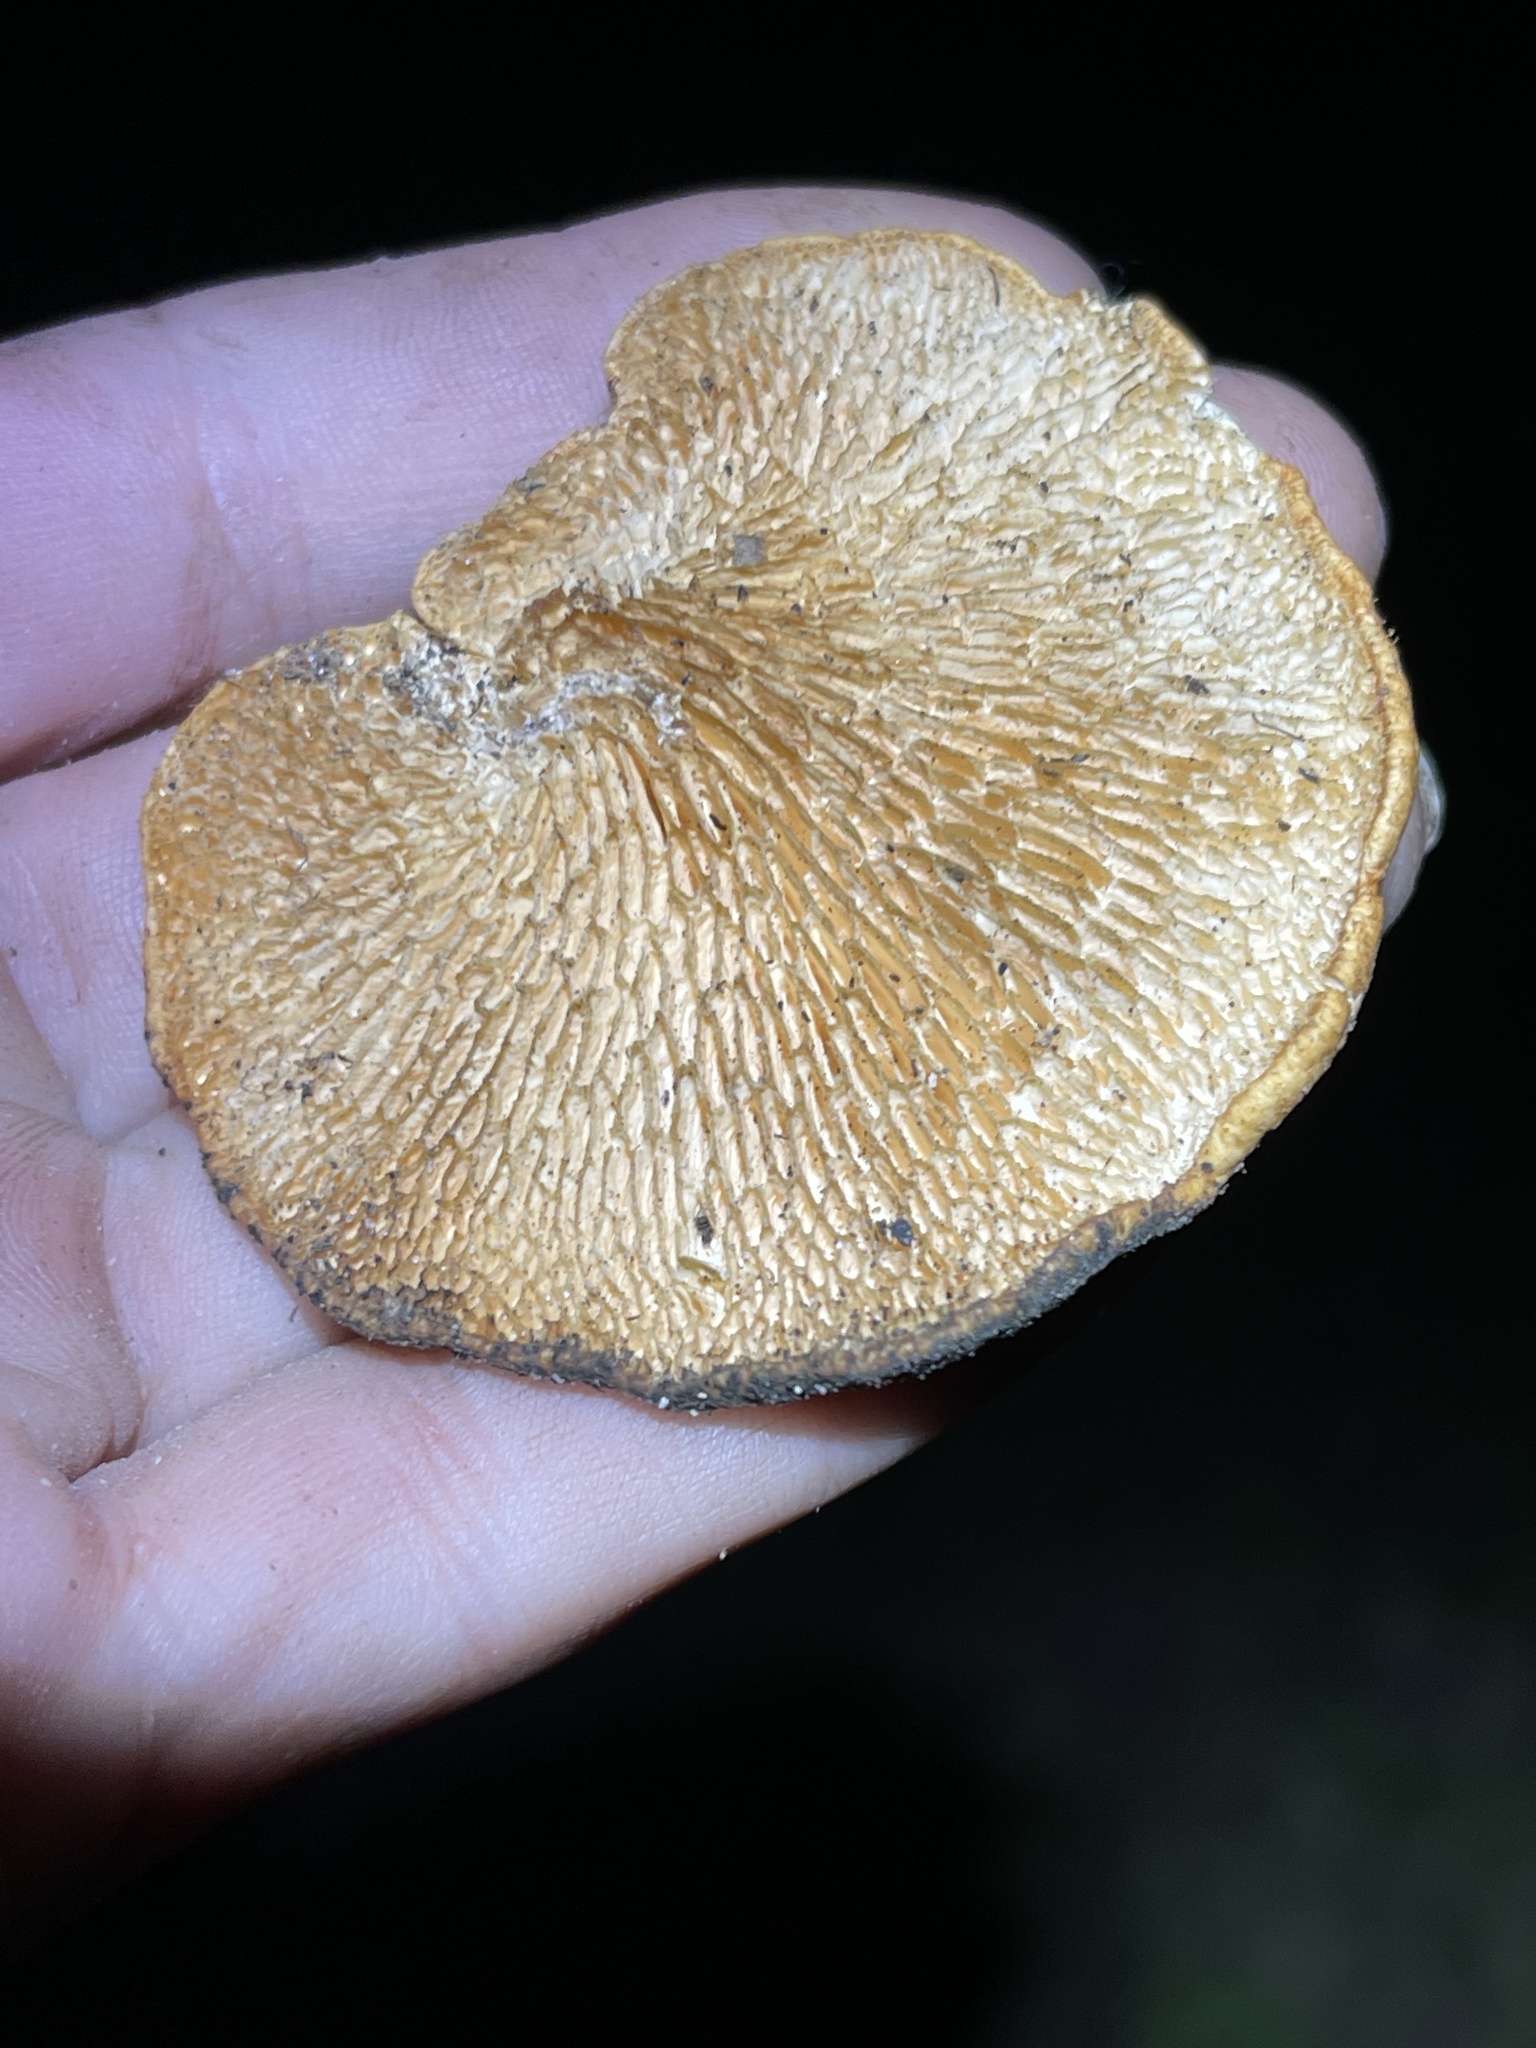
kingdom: Fungi
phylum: Basidiomycota
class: Agaricomycetes
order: Polyporales
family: Polyporaceae
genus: Neofavolus
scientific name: Neofavolus alveolaris
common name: Hexagonal-pored polypore
